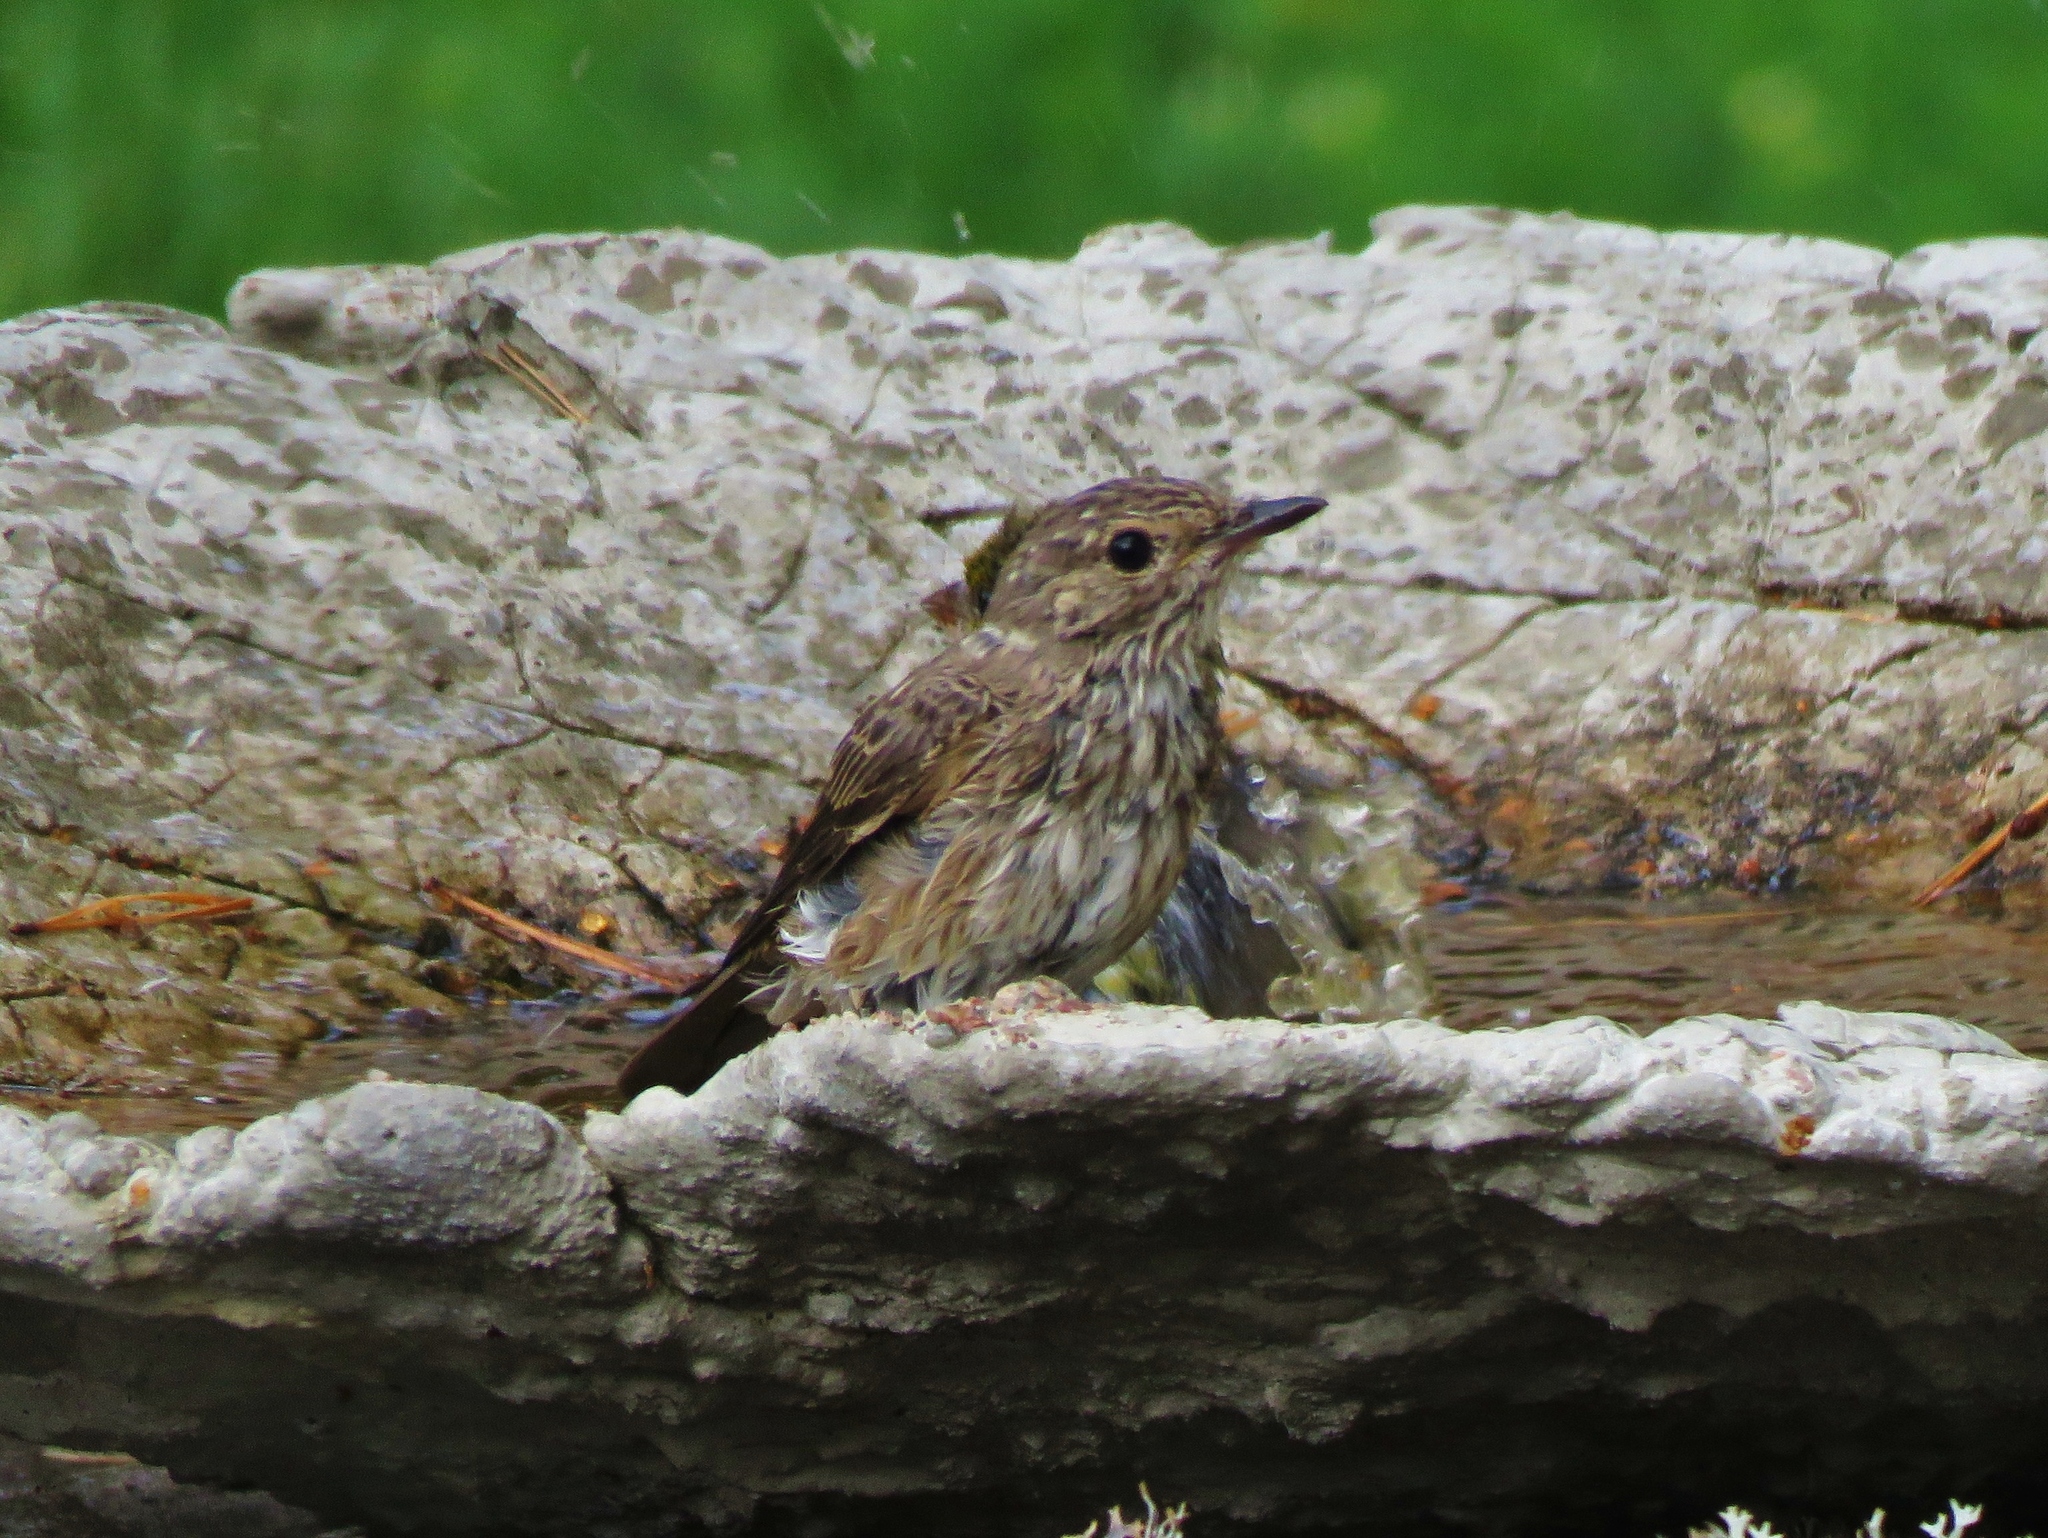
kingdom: Animalia
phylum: Chordata
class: Aves
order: Passeriformes
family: Muscicapidae
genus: Muscicapa
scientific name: Muscicapa striata
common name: Spotted flycatcher
